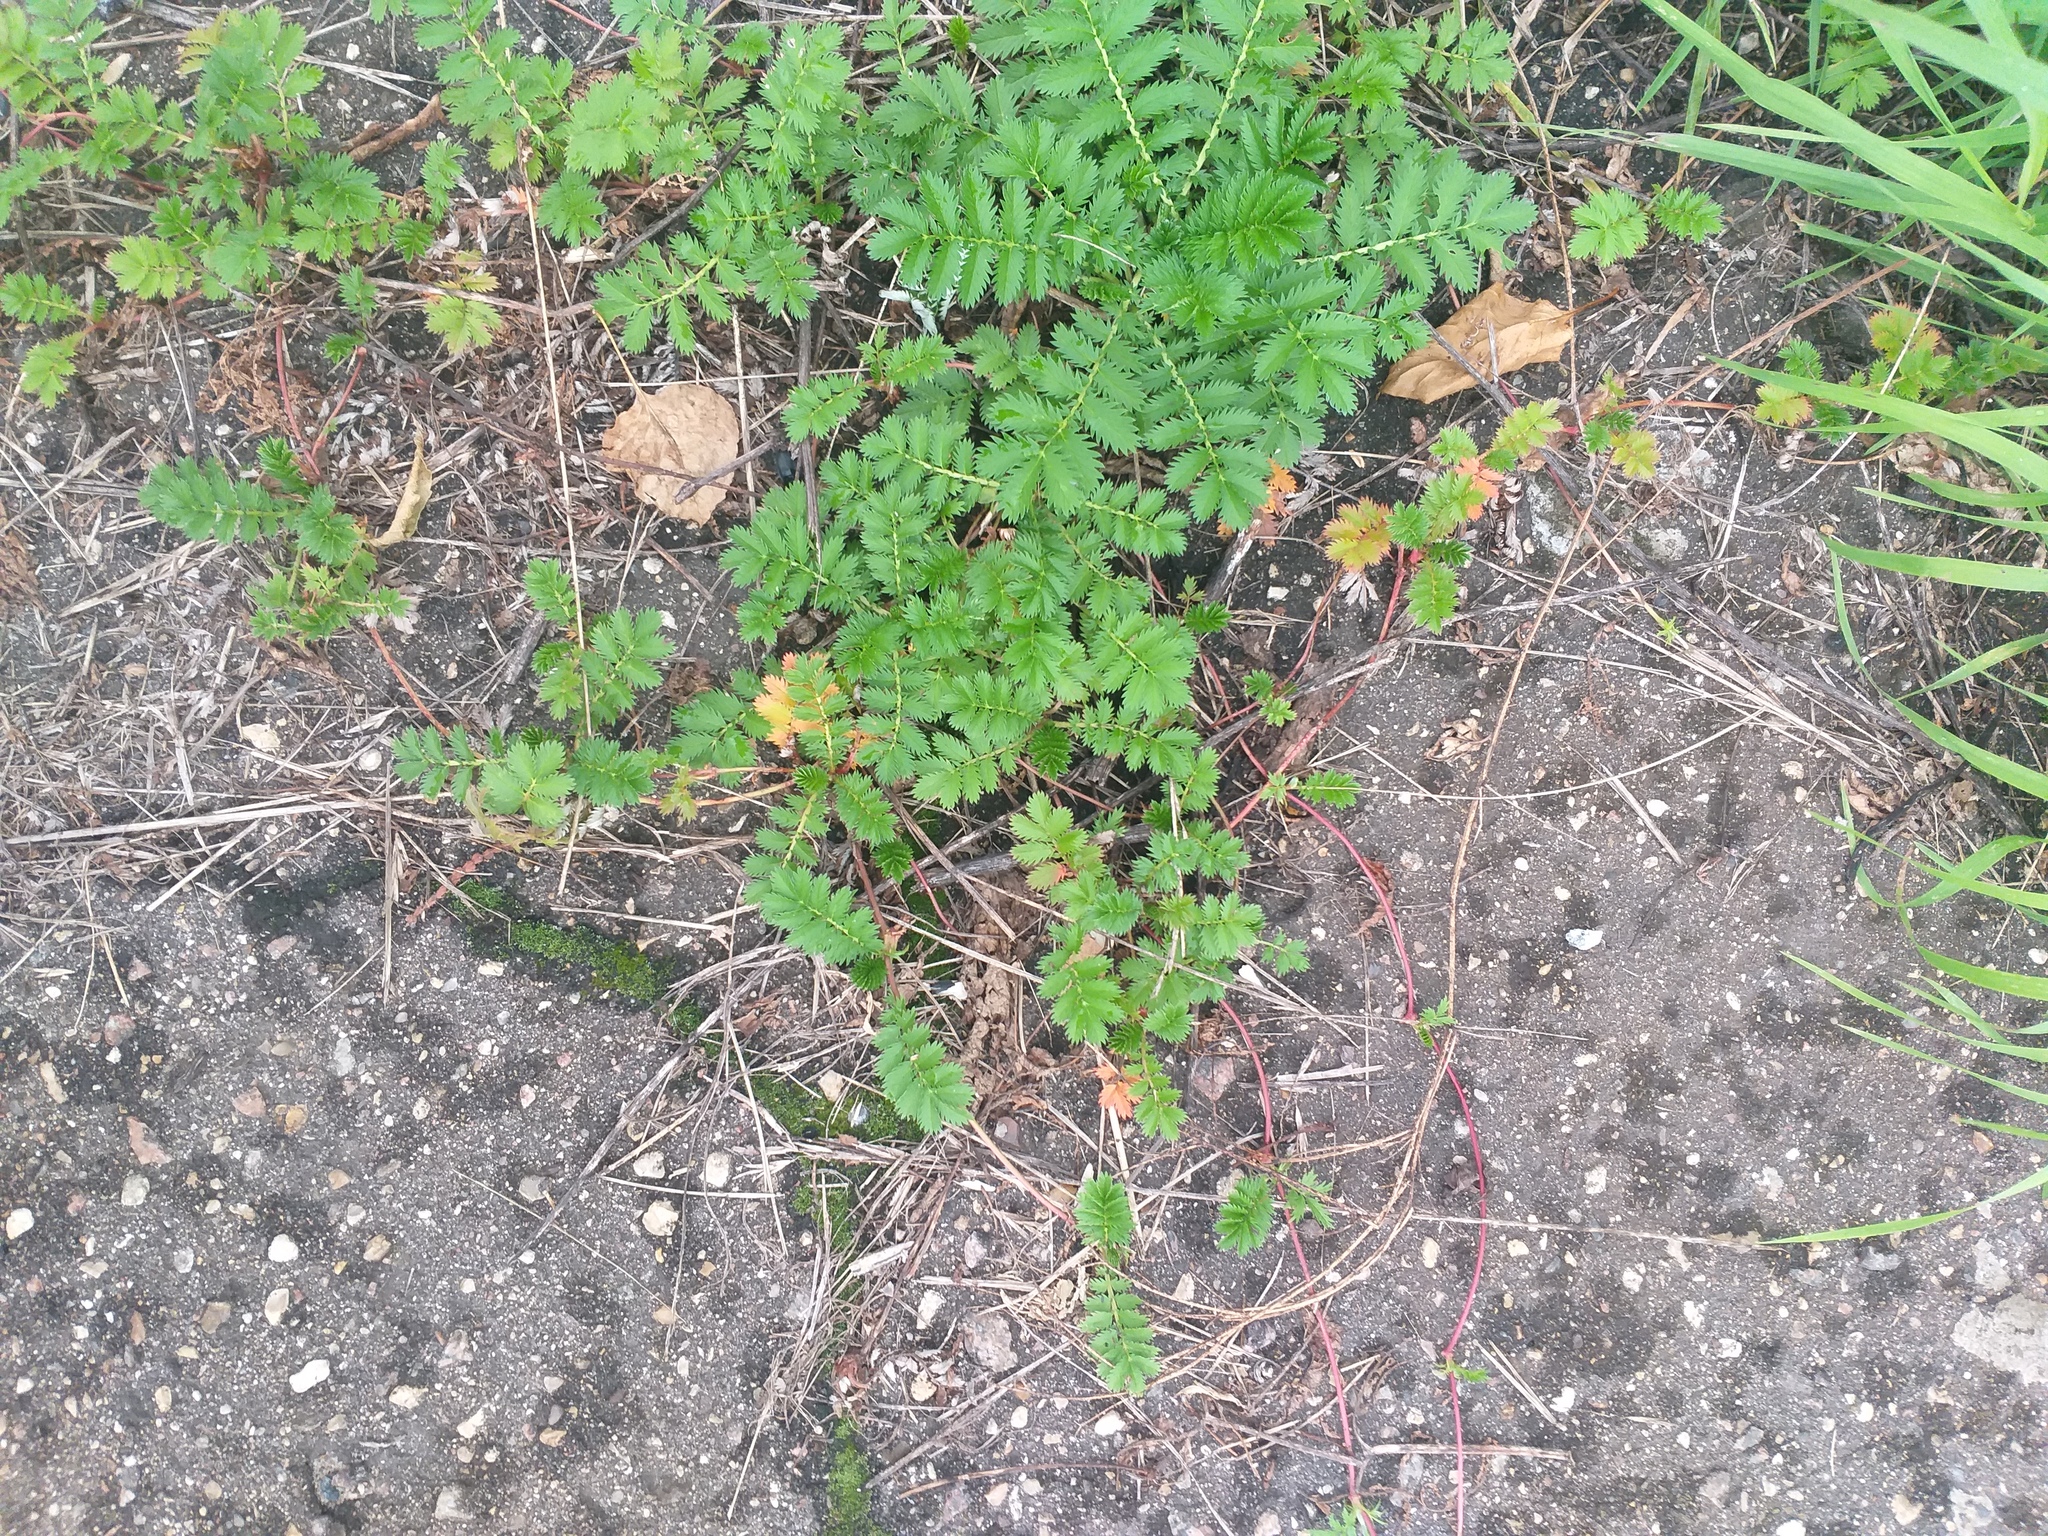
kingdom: Plantae
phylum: Tracheophyta
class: Magnoliopsida
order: Rosales
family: Rosaceae
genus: Argentina
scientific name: Argentina anserina
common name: Common silverweed
